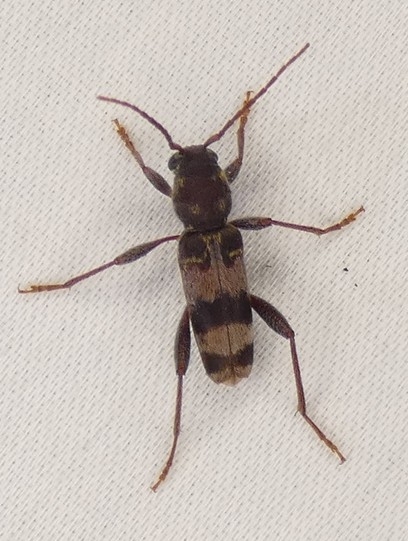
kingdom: Animalia
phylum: Arthropoda
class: Insecta
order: Coleoptera
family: Cerambycidae
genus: Xylotrechus
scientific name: Xylotrechus colonus
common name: Long-horned beetle
